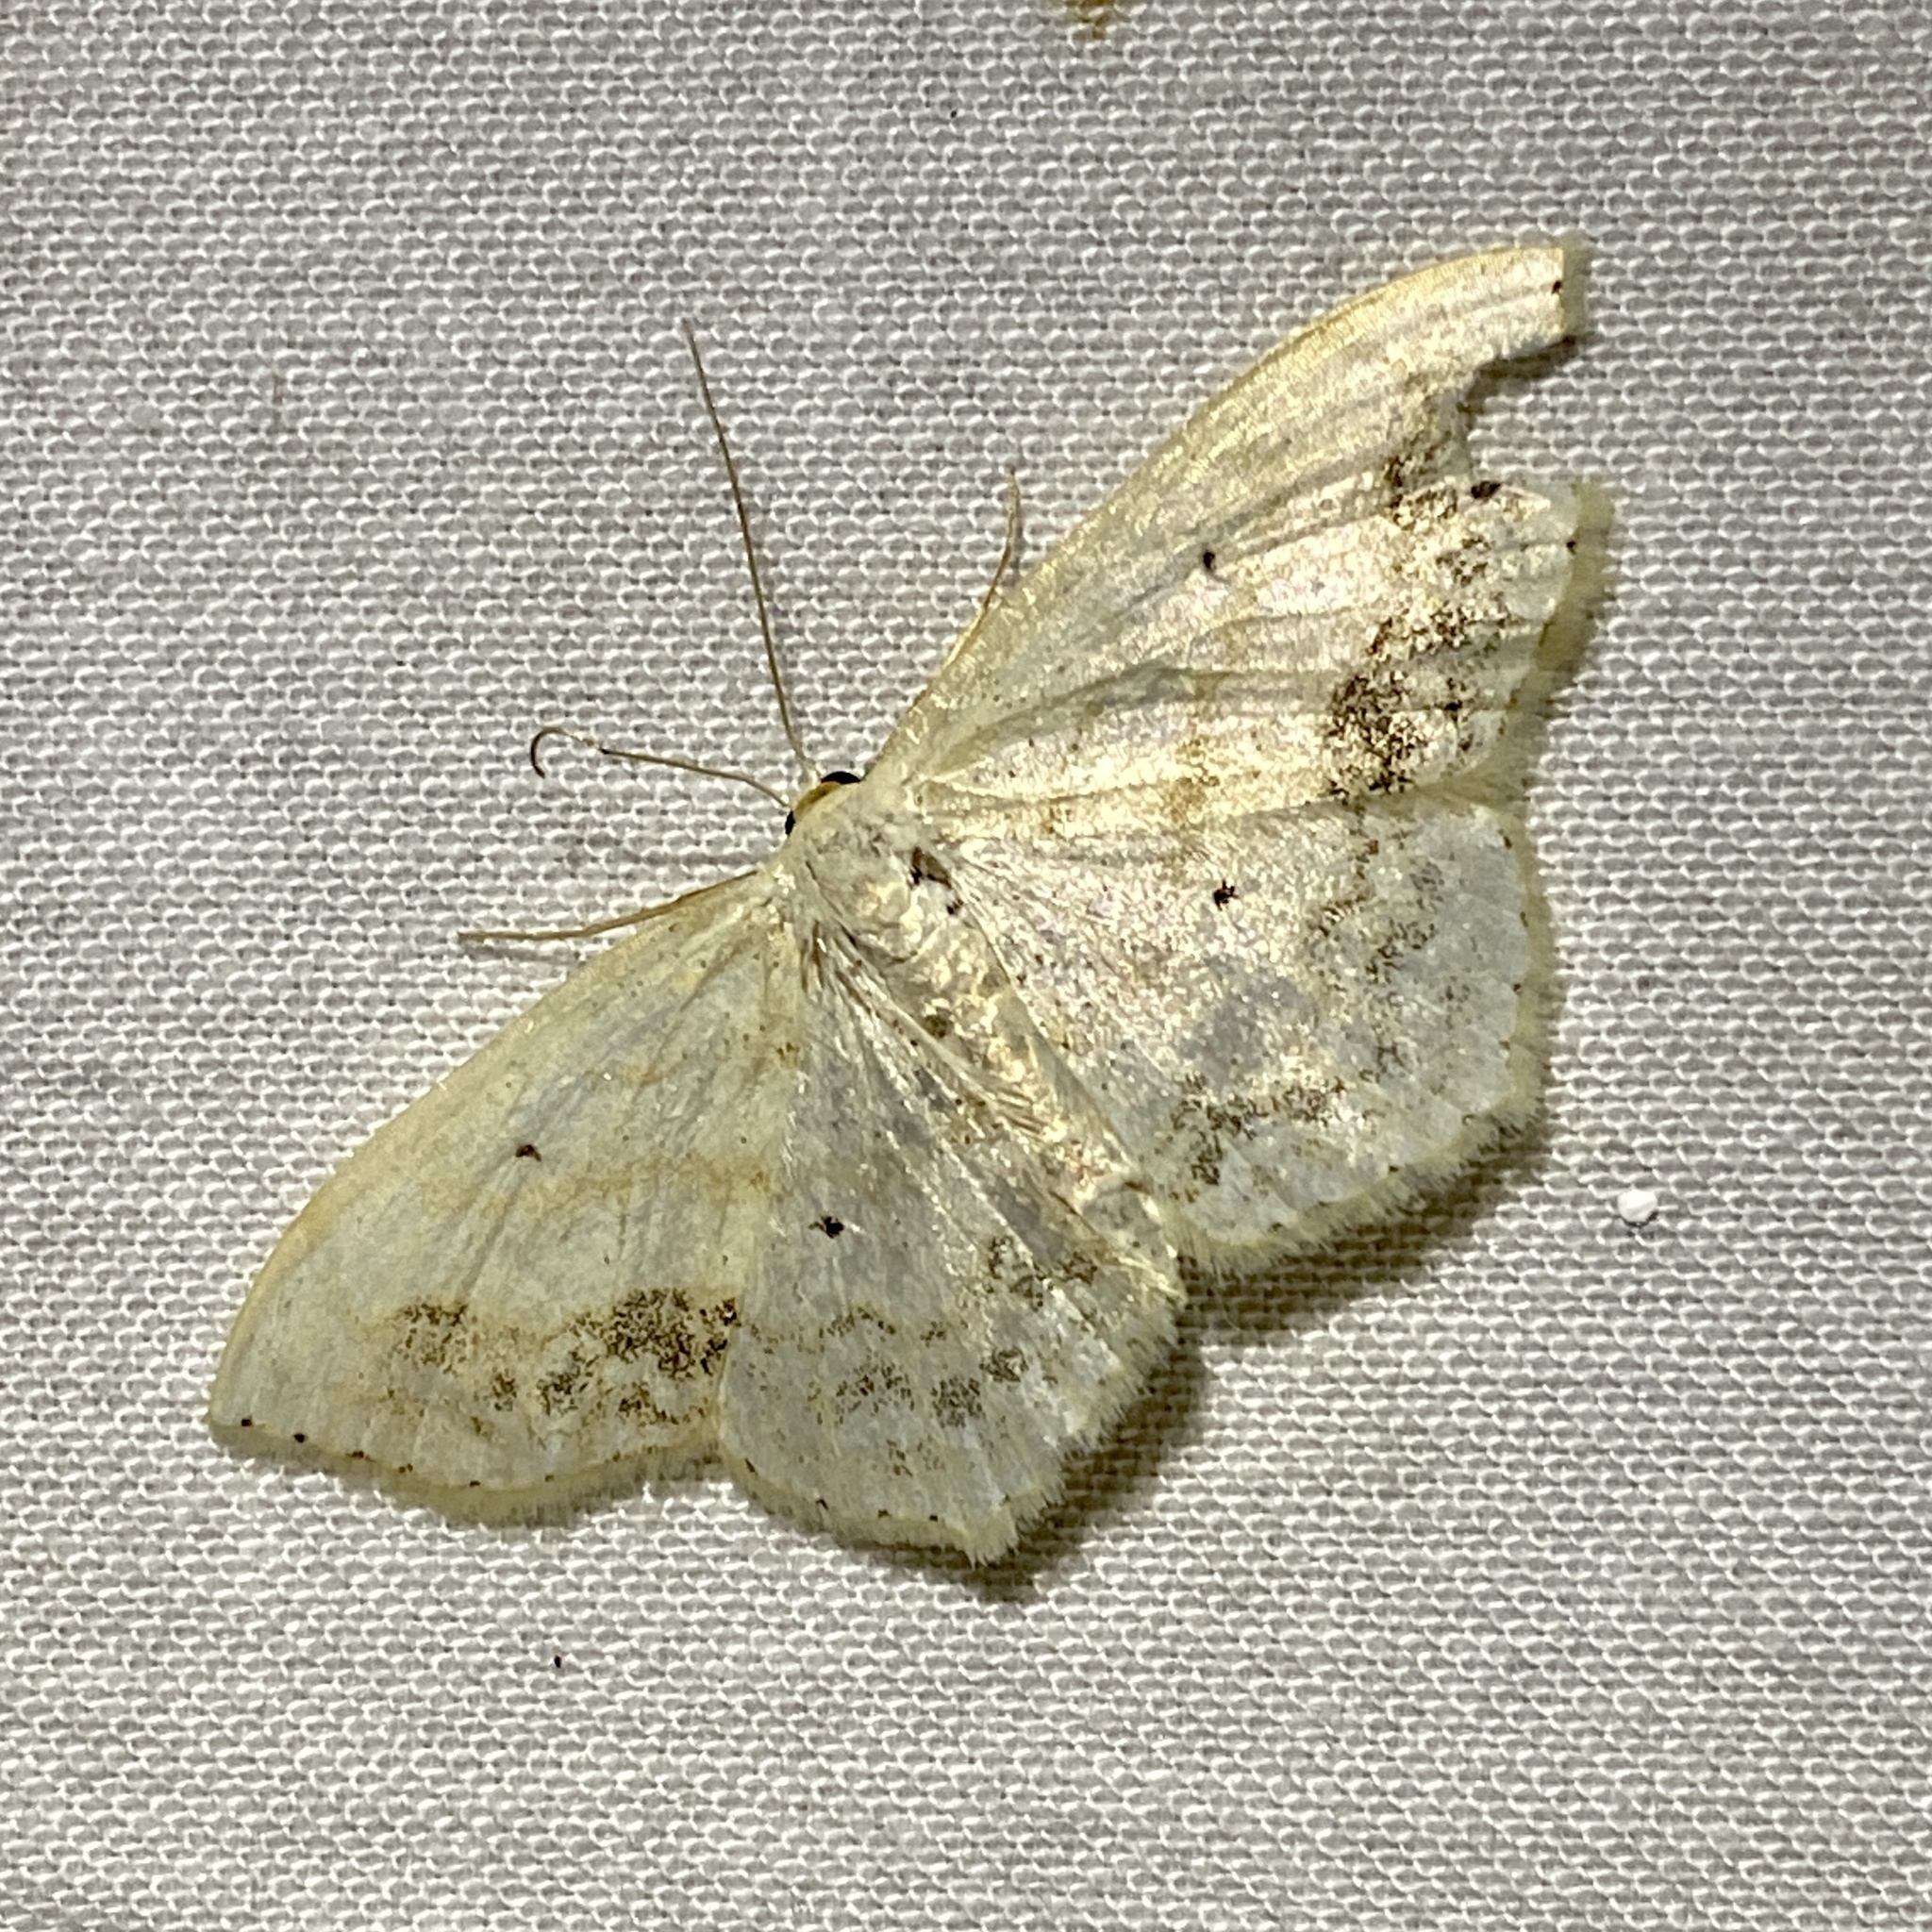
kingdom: Animalia
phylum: Arthropoda
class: Insecta
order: Lepidoptera
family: Geometridae
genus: Scopula
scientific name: Scopula limboundata
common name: Large lace border
